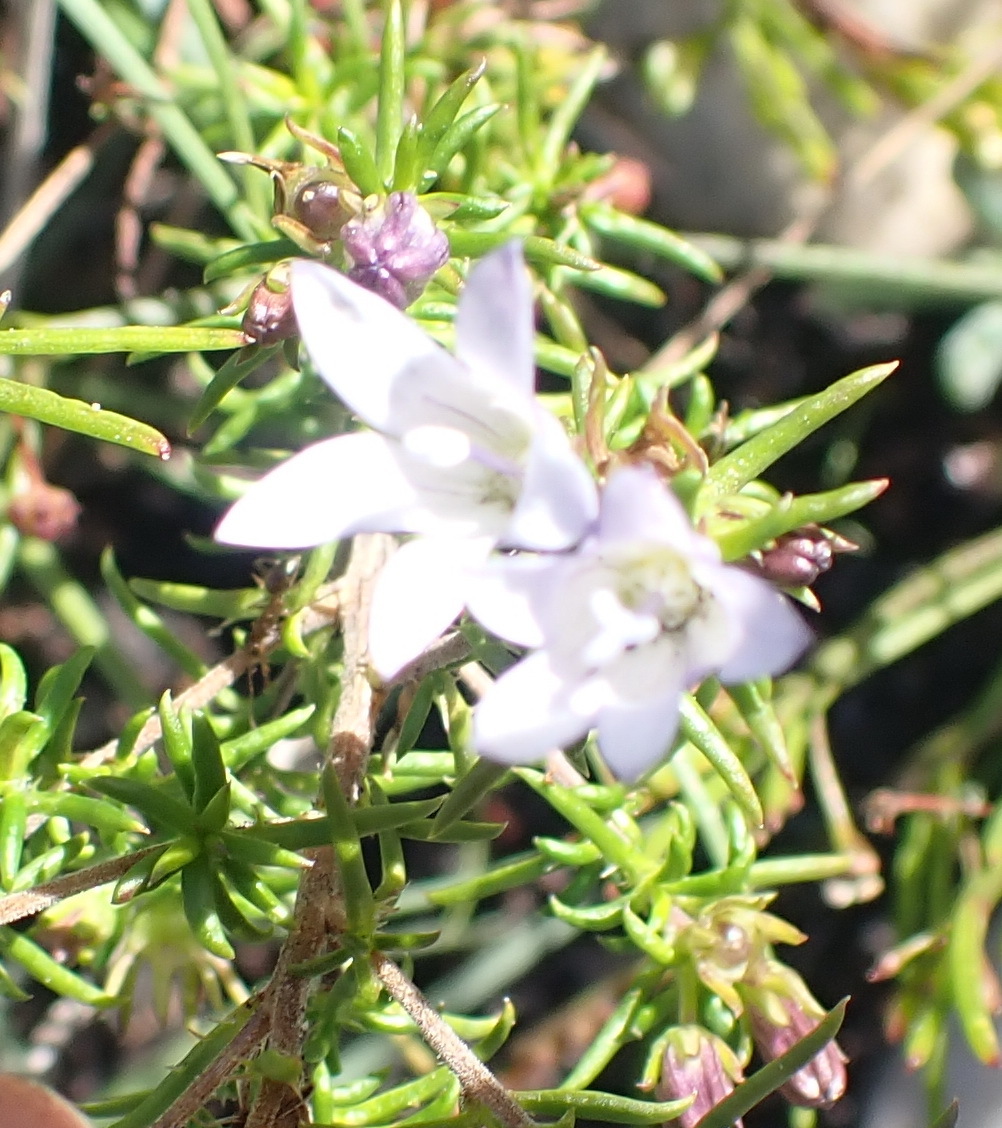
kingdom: Plantae
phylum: Tracheophyta
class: Magnoliopsida
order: Asterales
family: Campanulaceae
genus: Wahlenbergia
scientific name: Wahlenbergia thunbergii
